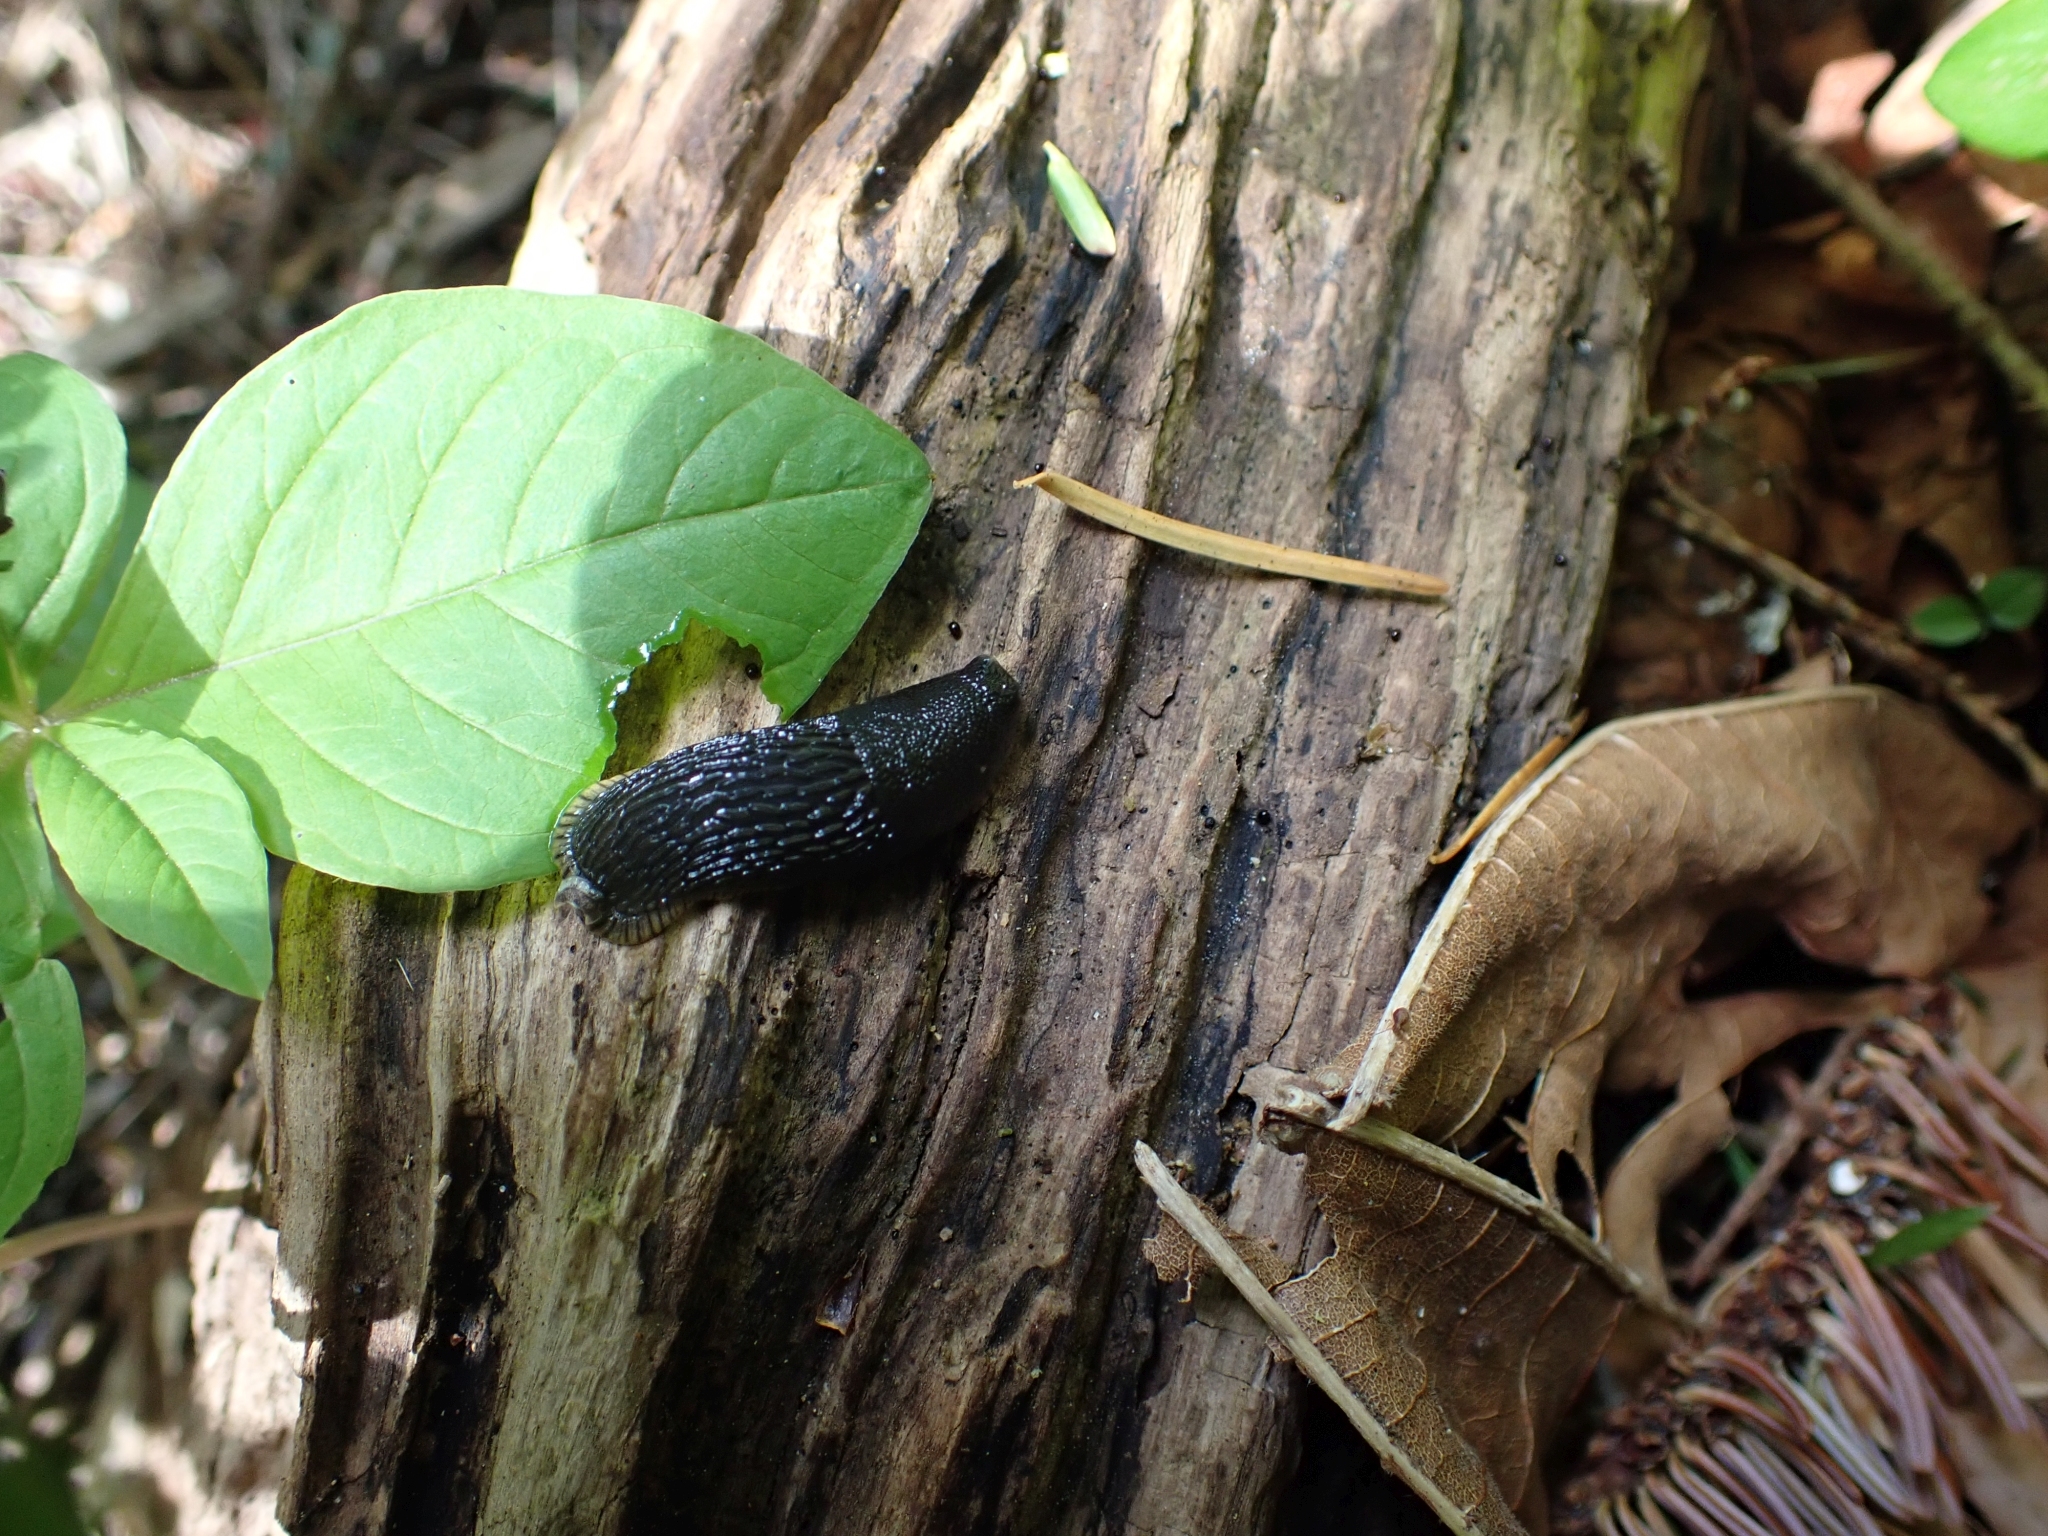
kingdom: Animalia
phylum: Mollusca
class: Gastropoda
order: Stylommatophora
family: Arionidae
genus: Arion
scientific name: Arion
